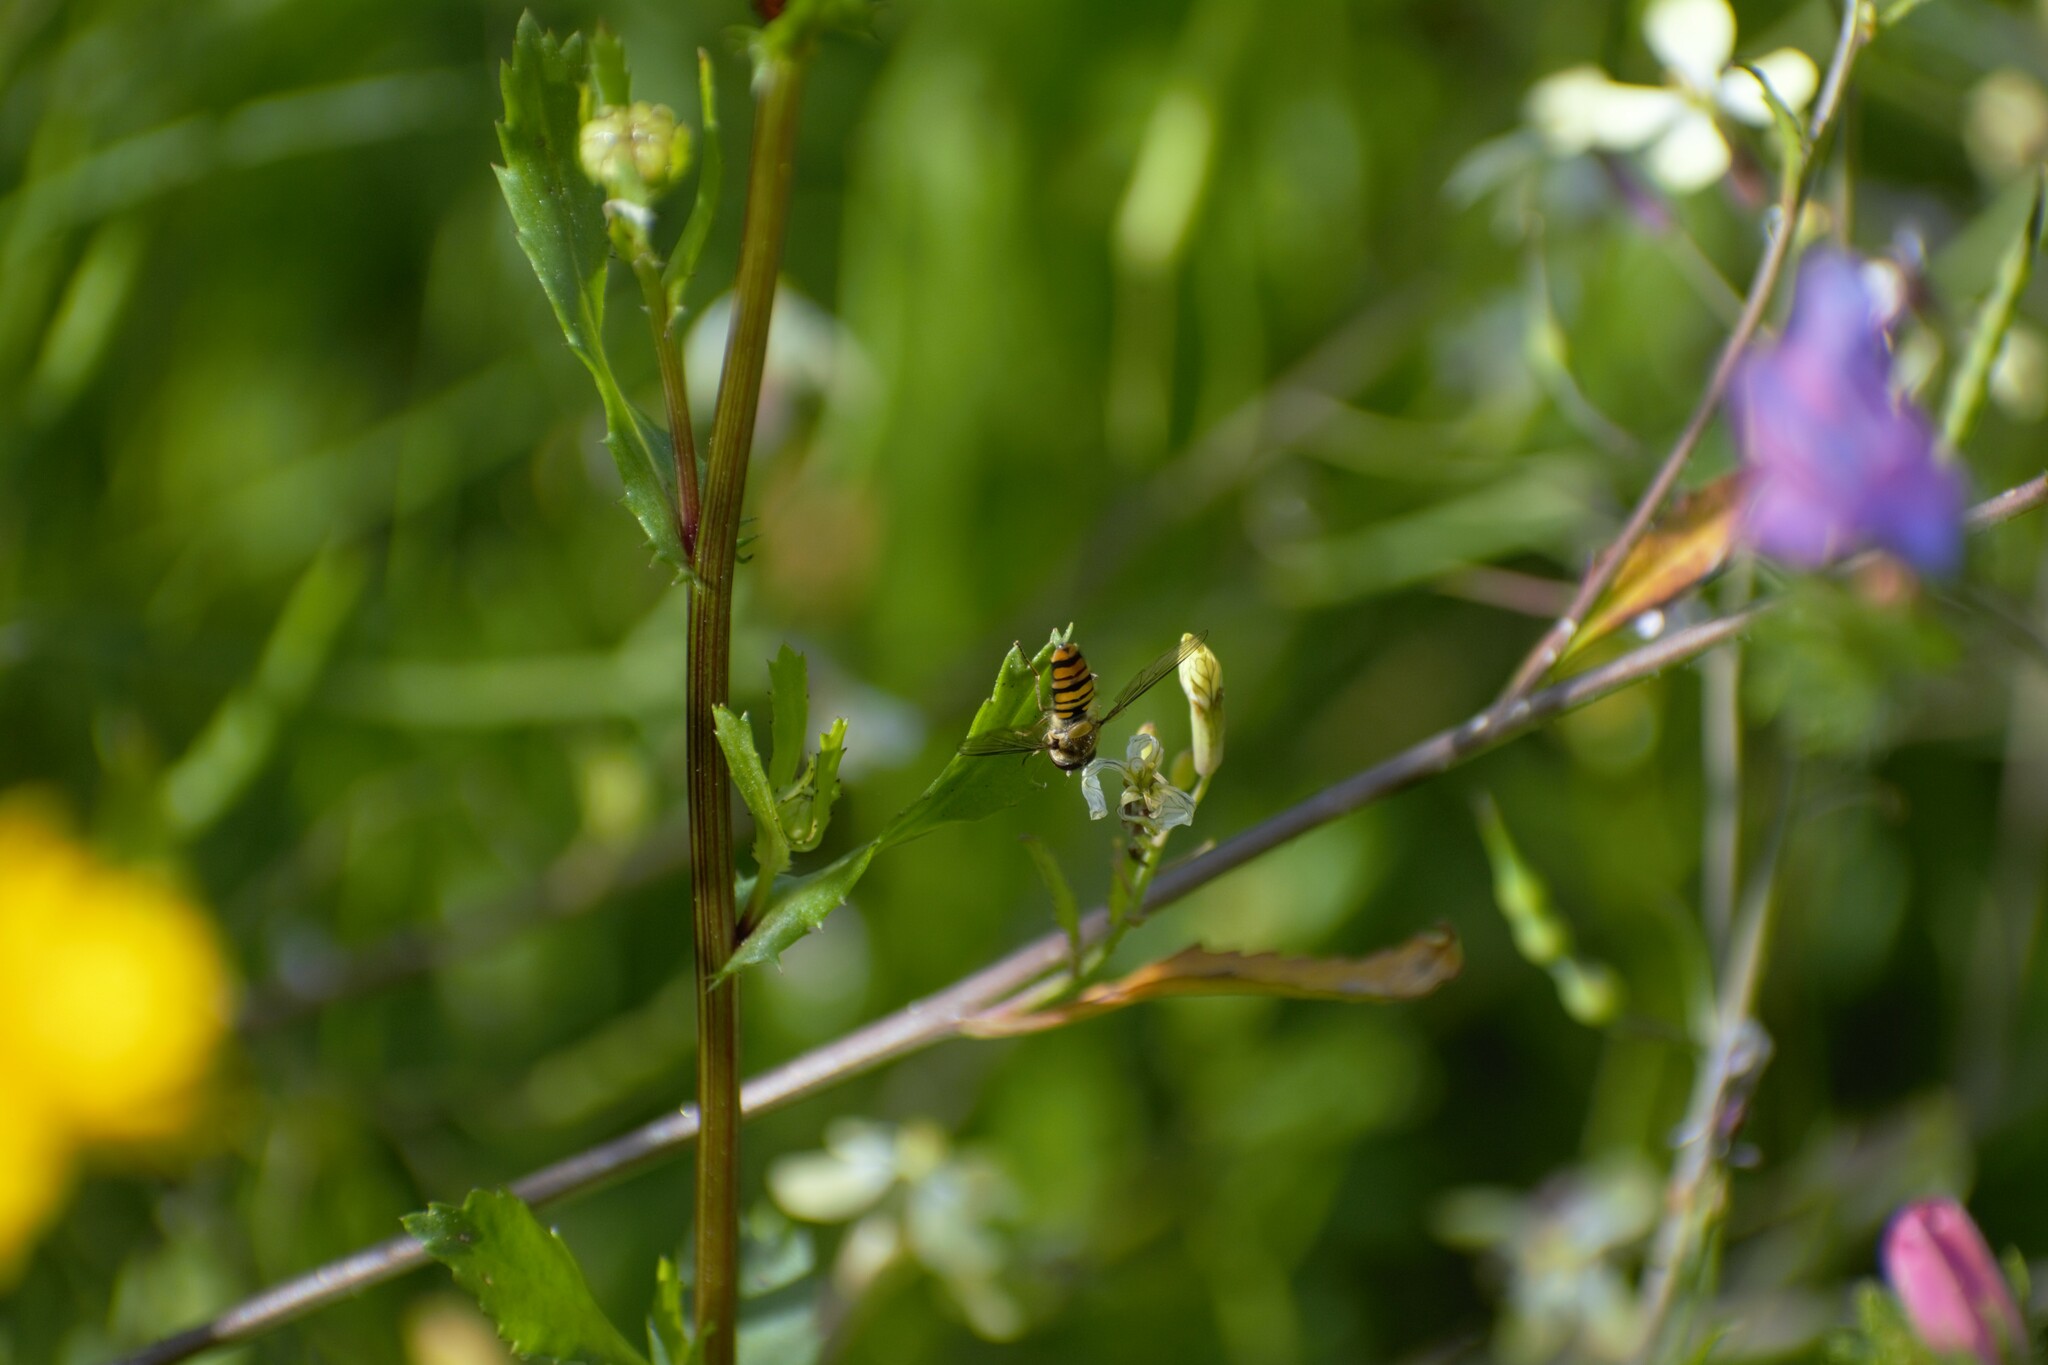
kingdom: Animalia
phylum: Arthropoda
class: Insecta
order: Diptera
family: Syrphidae
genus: Episyrphus
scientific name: Episyrphus balteatus
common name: Marmalade hoverfly
